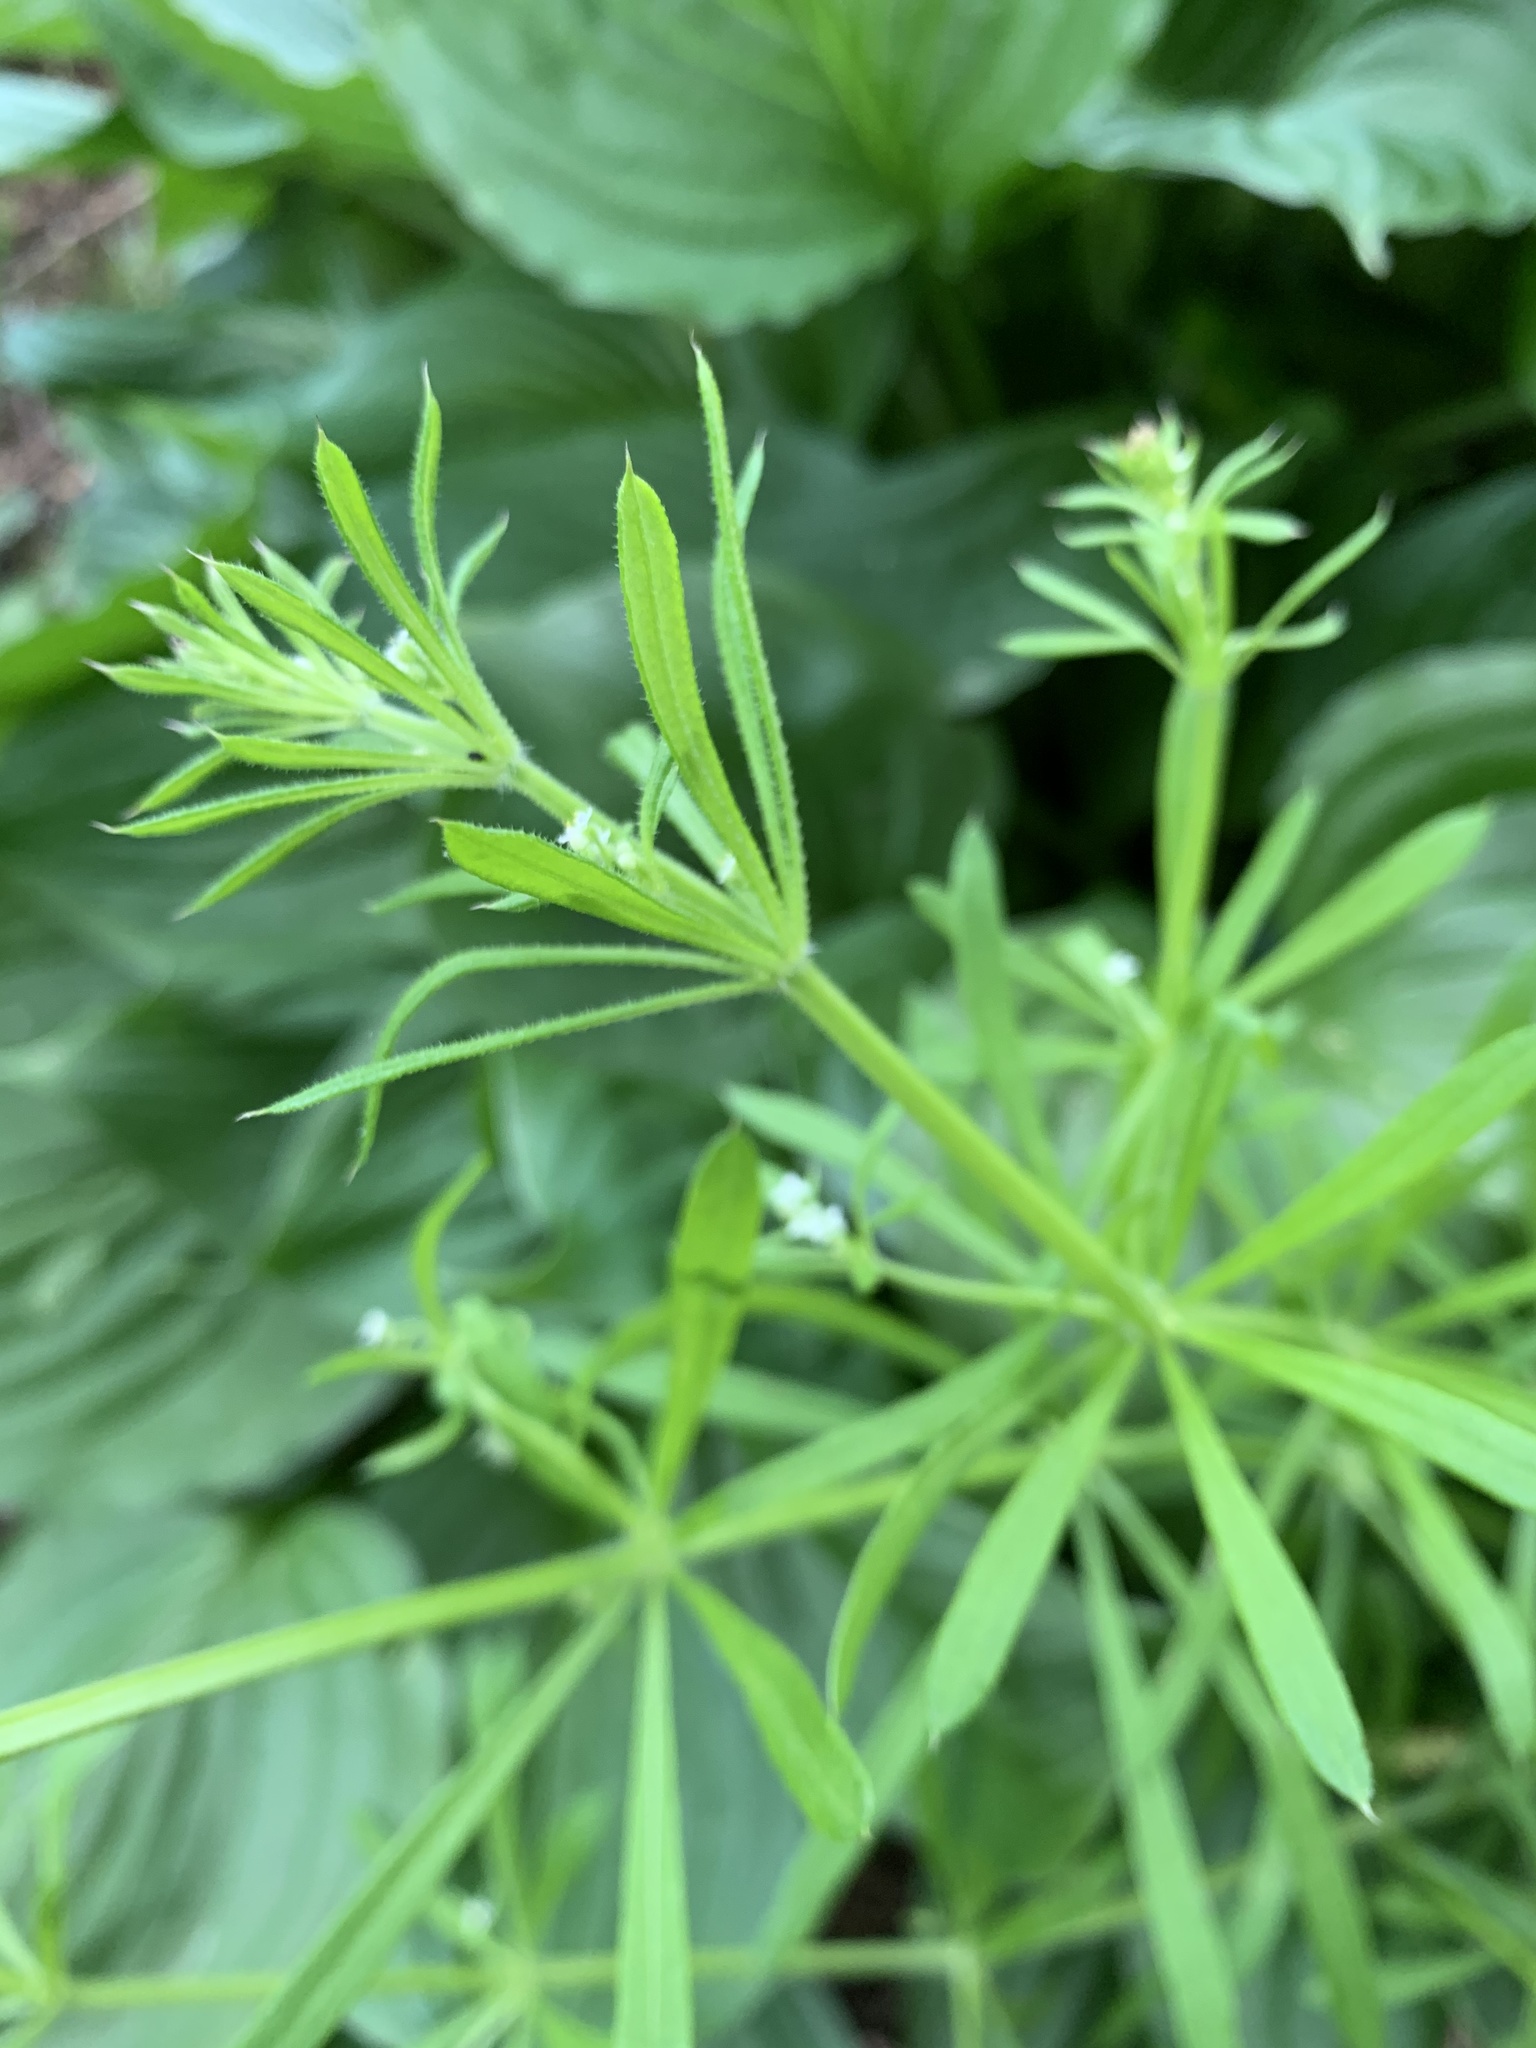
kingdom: Plantae
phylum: Tracheophyta
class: Magnoliopsida
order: Gentianales
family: Rubiaceae
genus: Galium
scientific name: Galium aparine
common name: Cleavers
